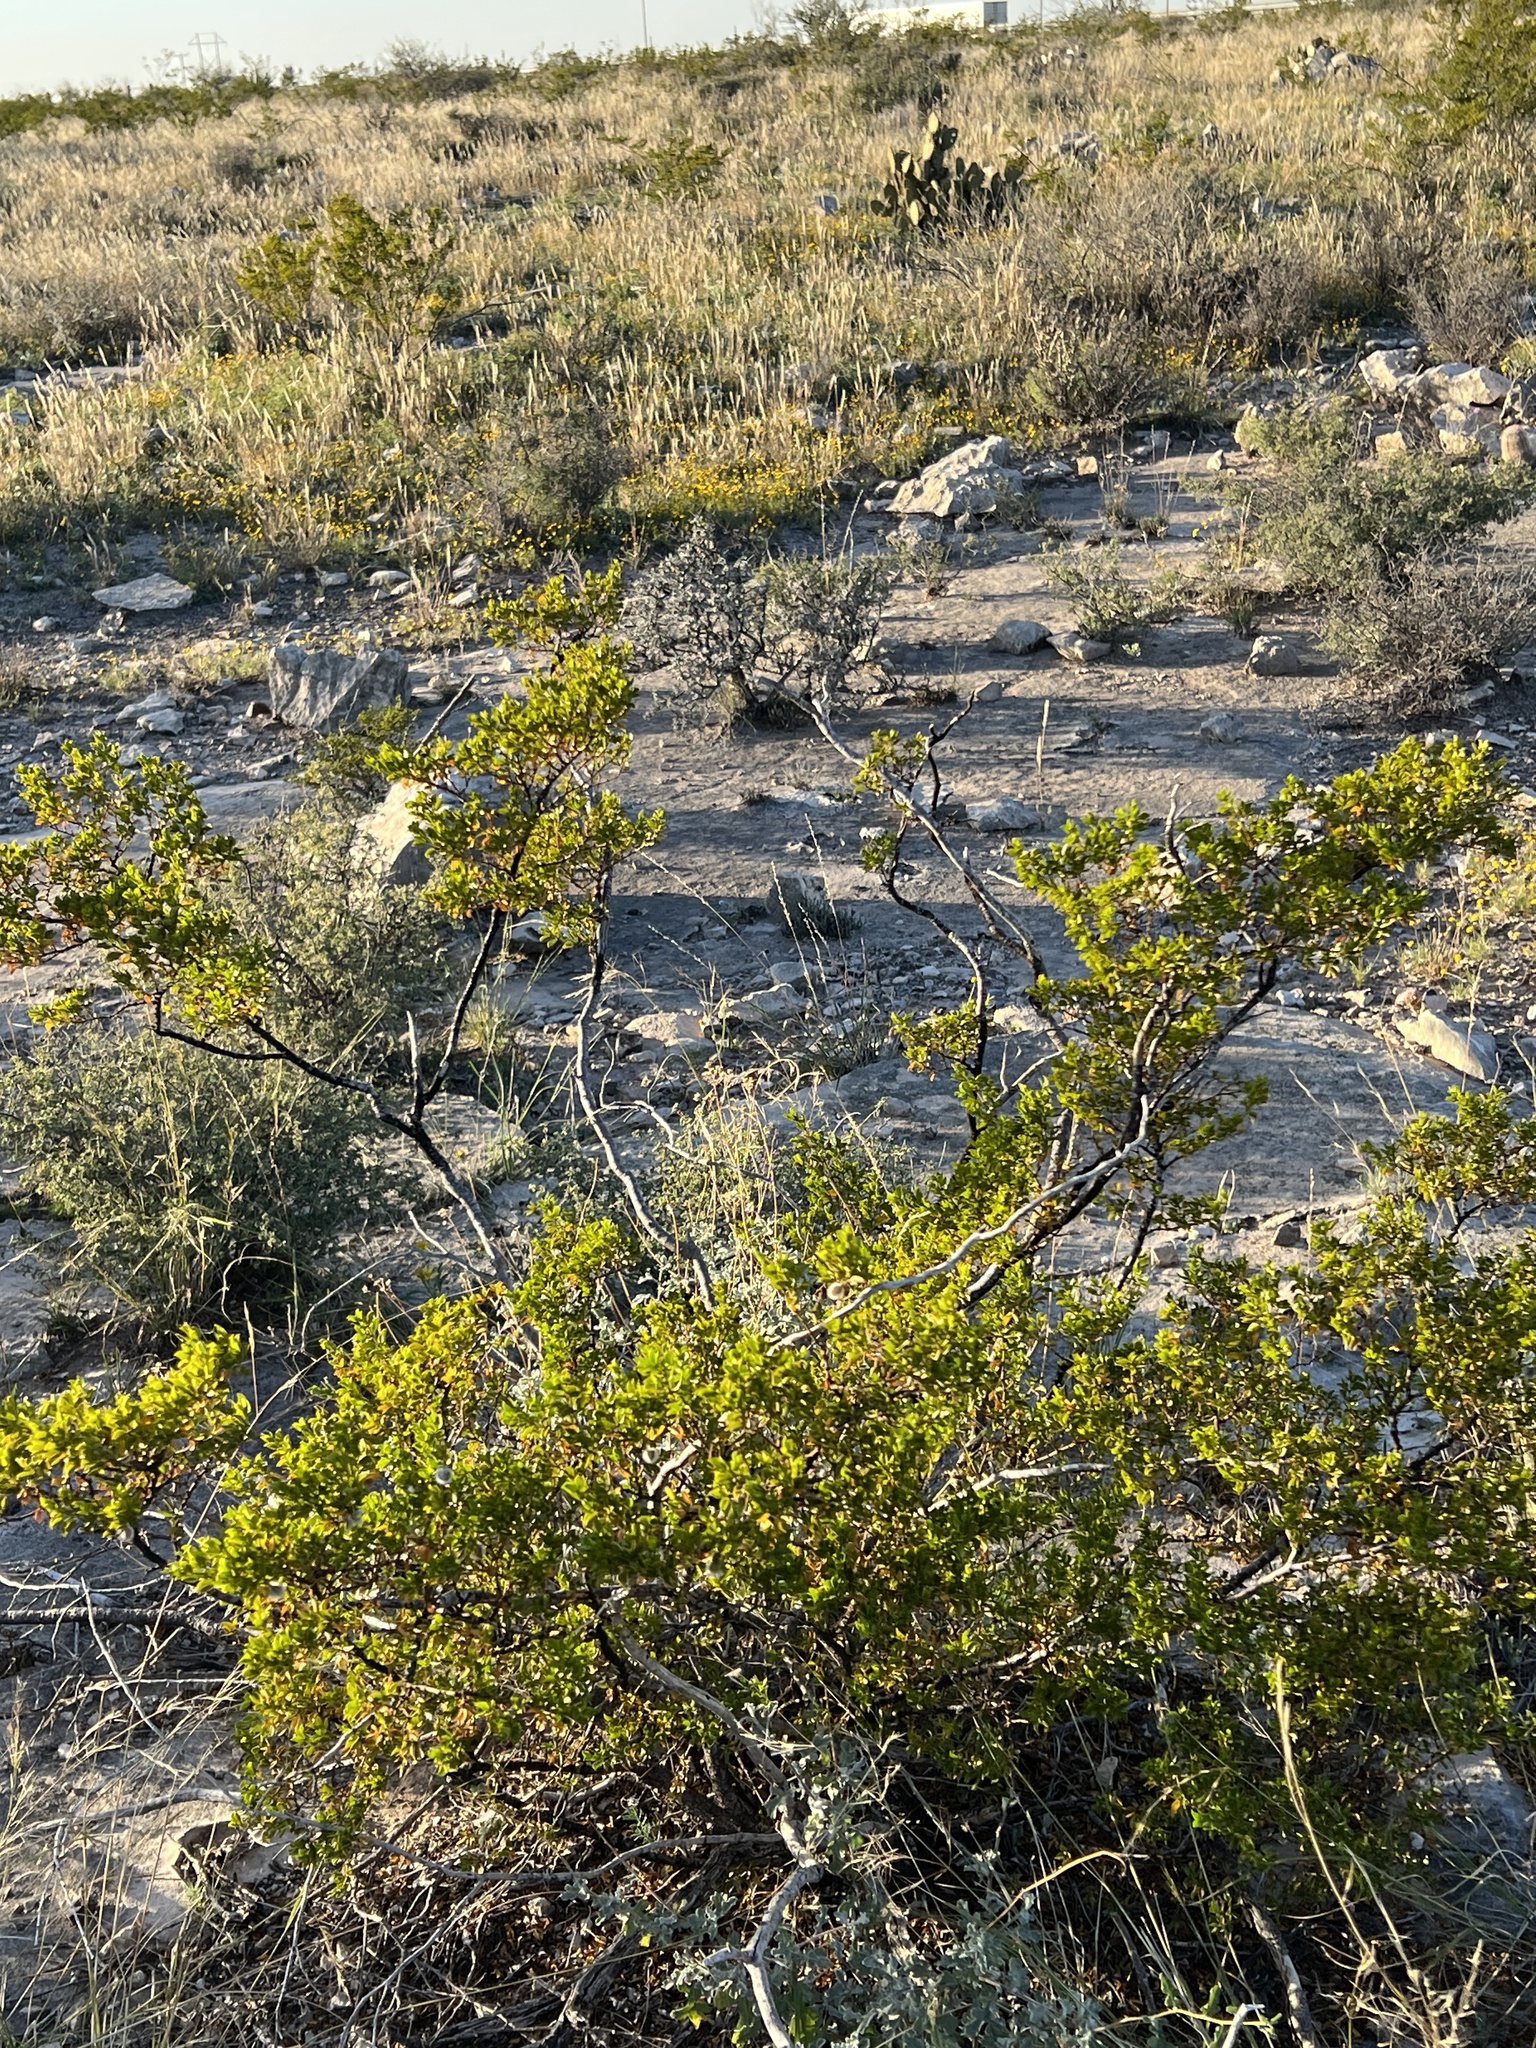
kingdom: Plantae
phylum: Tracheophyta
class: Magnoliopsida
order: Zygophyllales
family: Zygophyllaceae
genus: Larrea
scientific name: Larrea tridentata
